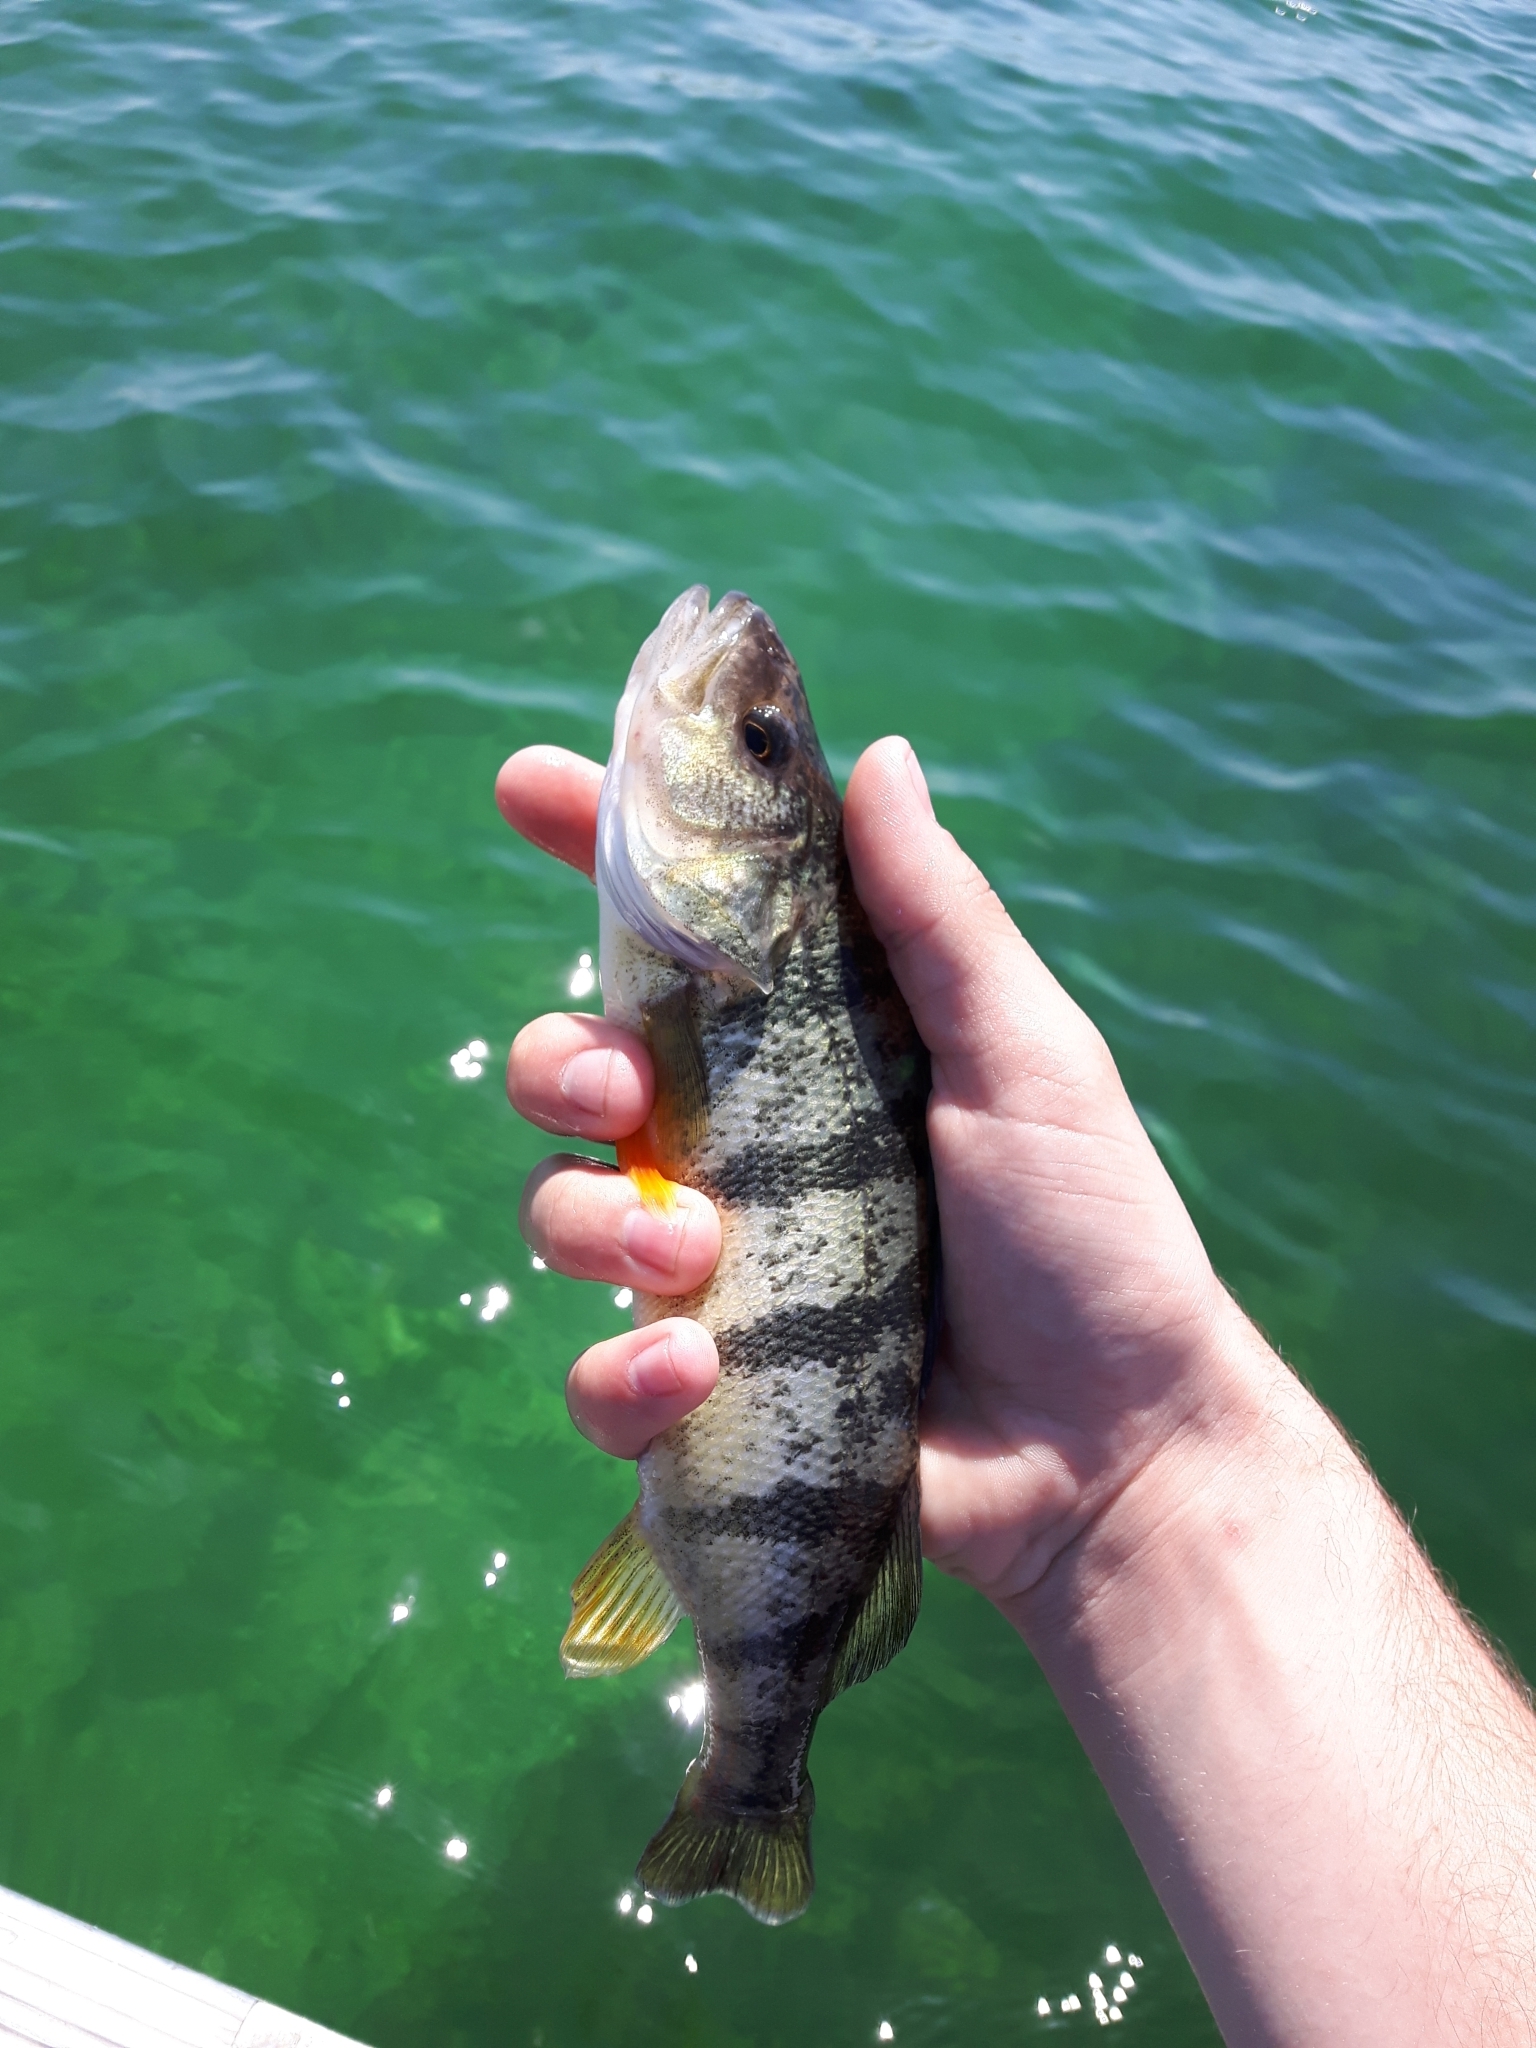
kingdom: Animalia
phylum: Chordata
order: Perciformes
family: Percidae
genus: Perca
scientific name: Perca flavescens
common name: Yellow perch
